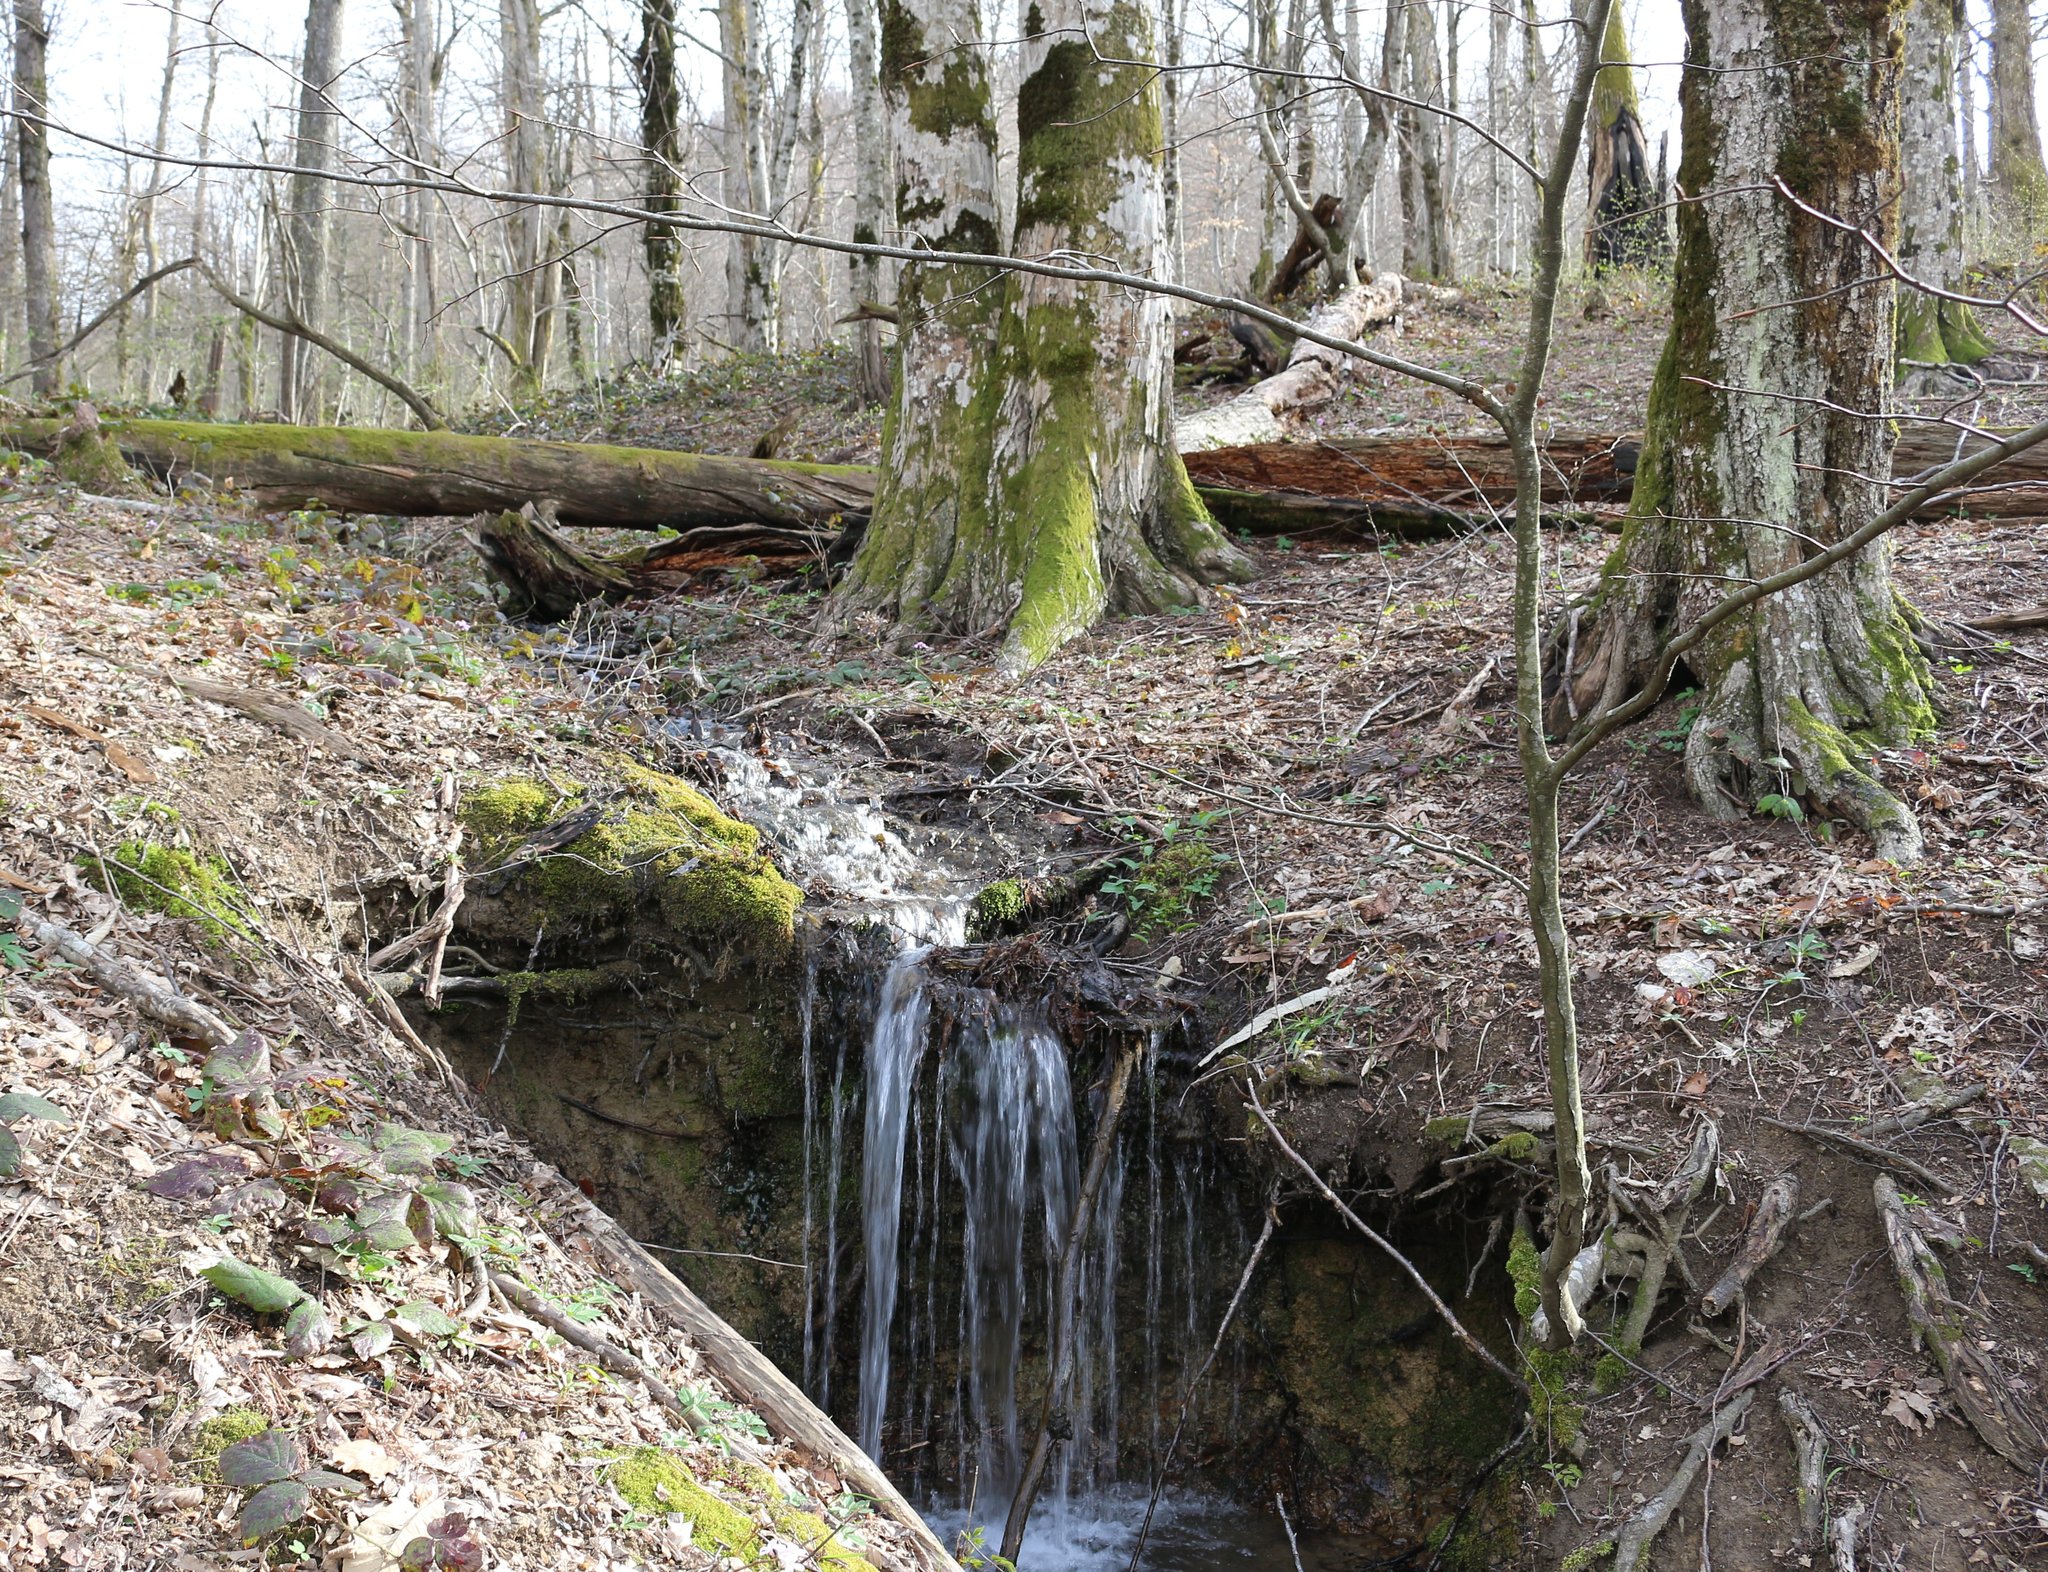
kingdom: Plantae
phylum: Tracheophyta
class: Magnoliopsida
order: Fagales
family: Fagaceae
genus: Fagus
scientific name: Fagus orientalis
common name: Oriental beech
